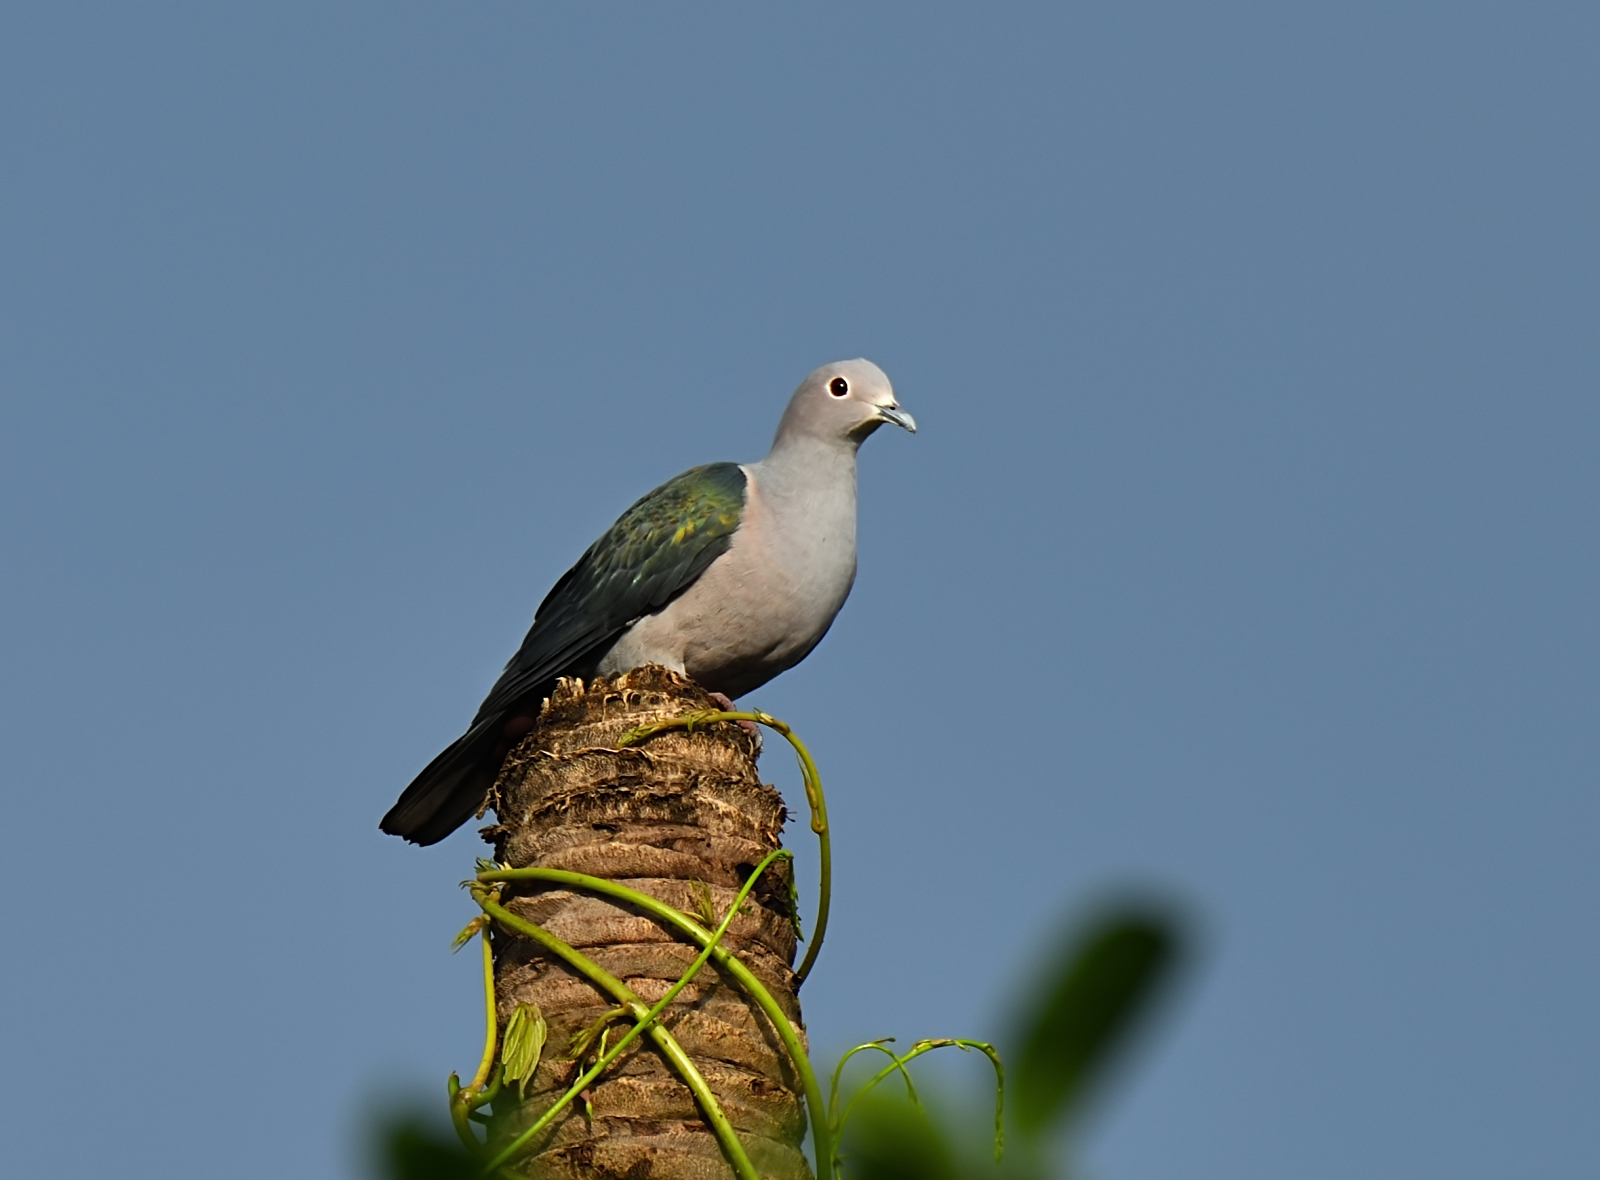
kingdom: Animalia
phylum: Chordata
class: Aves
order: Columbiformes
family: Columbidae
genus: Ducula
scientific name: Ducula aenea
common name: Green imperial pigeon
